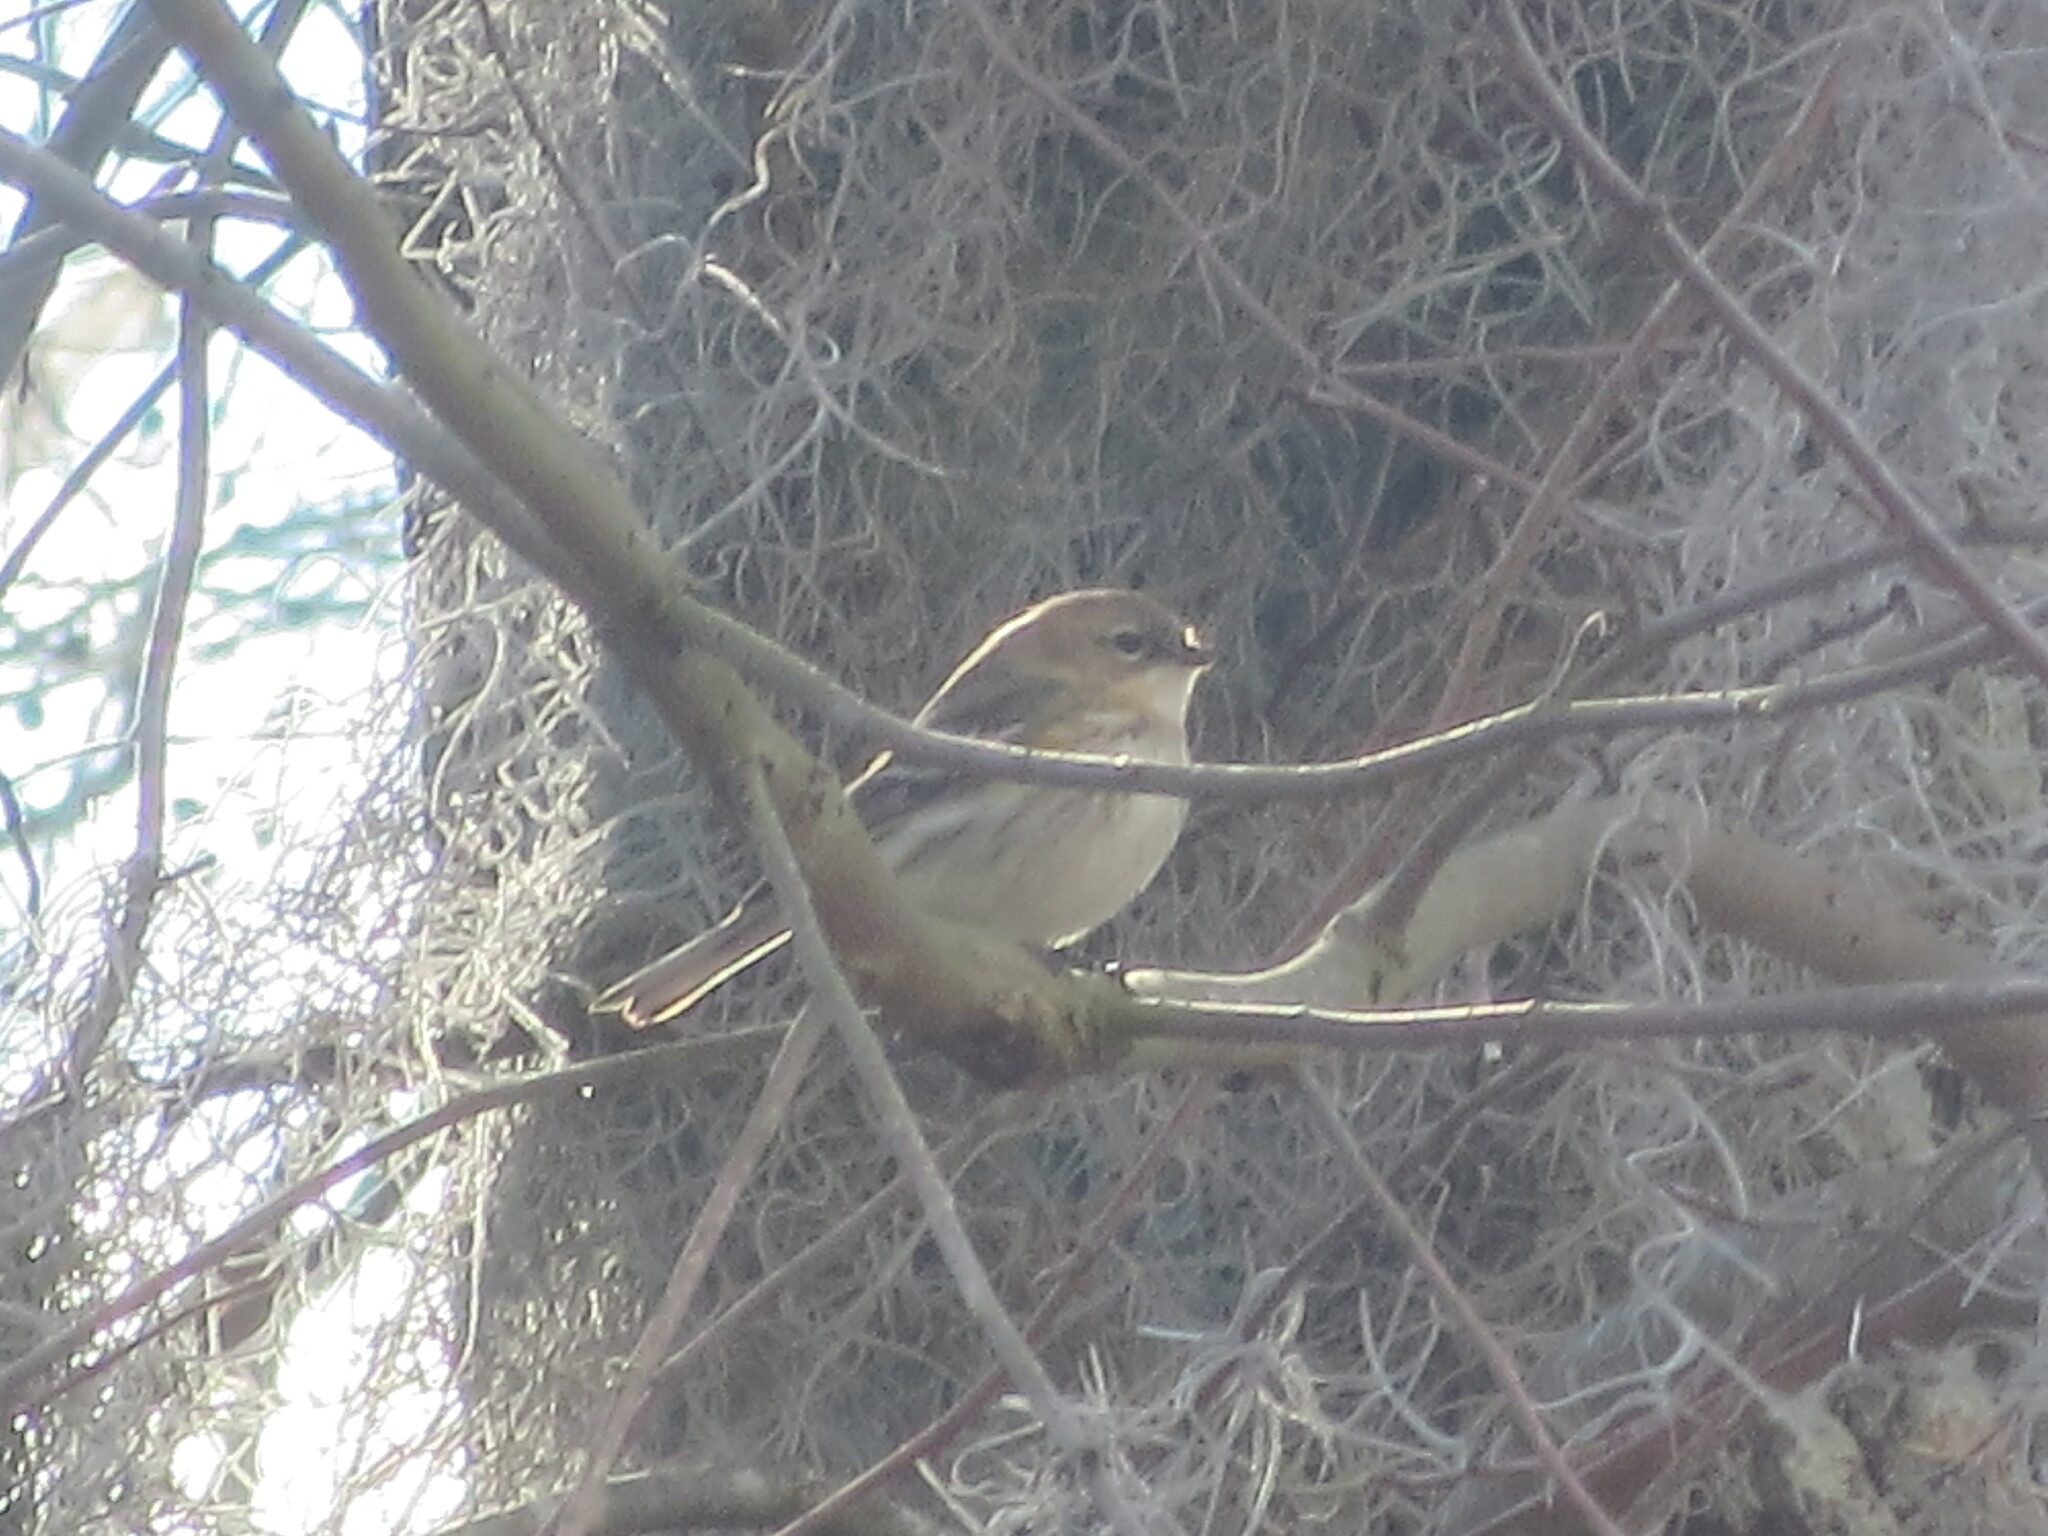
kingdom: Animalia
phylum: Chordata
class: Aves
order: Passeriformes
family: Parulidae
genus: Setophaga
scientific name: Setophaga coronata
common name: Myrtle warbler
